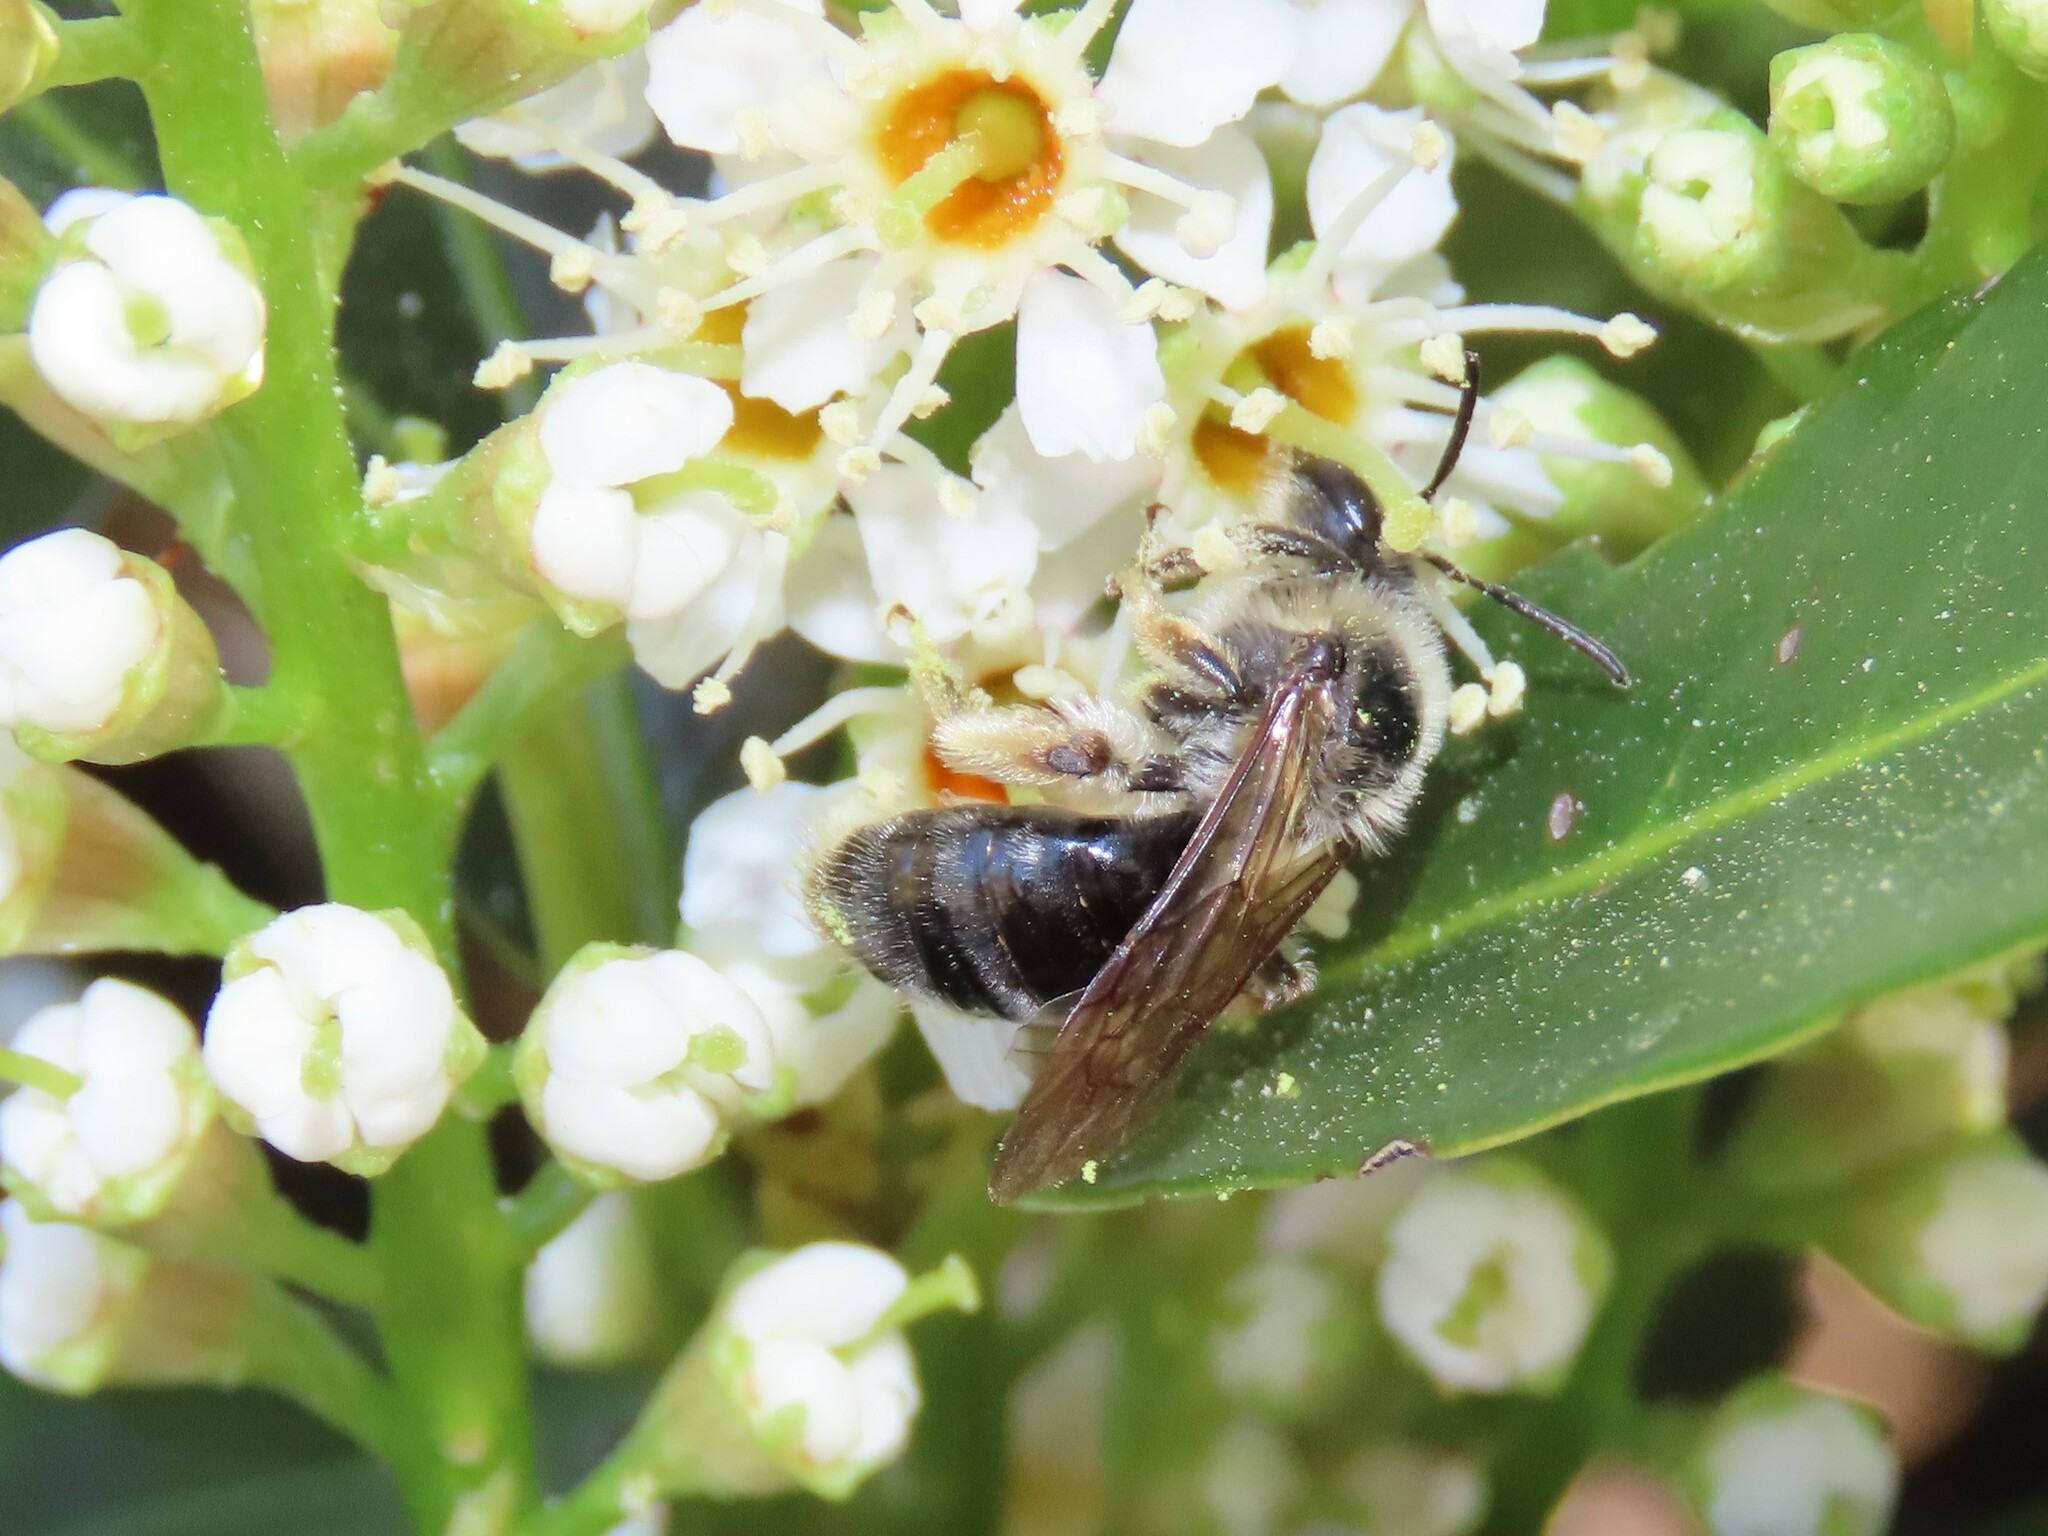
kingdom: Animalia
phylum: Arthropoda
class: Insecta
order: Hymenoptera
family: Andrenidae
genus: Andrena
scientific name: Andrena barbara
